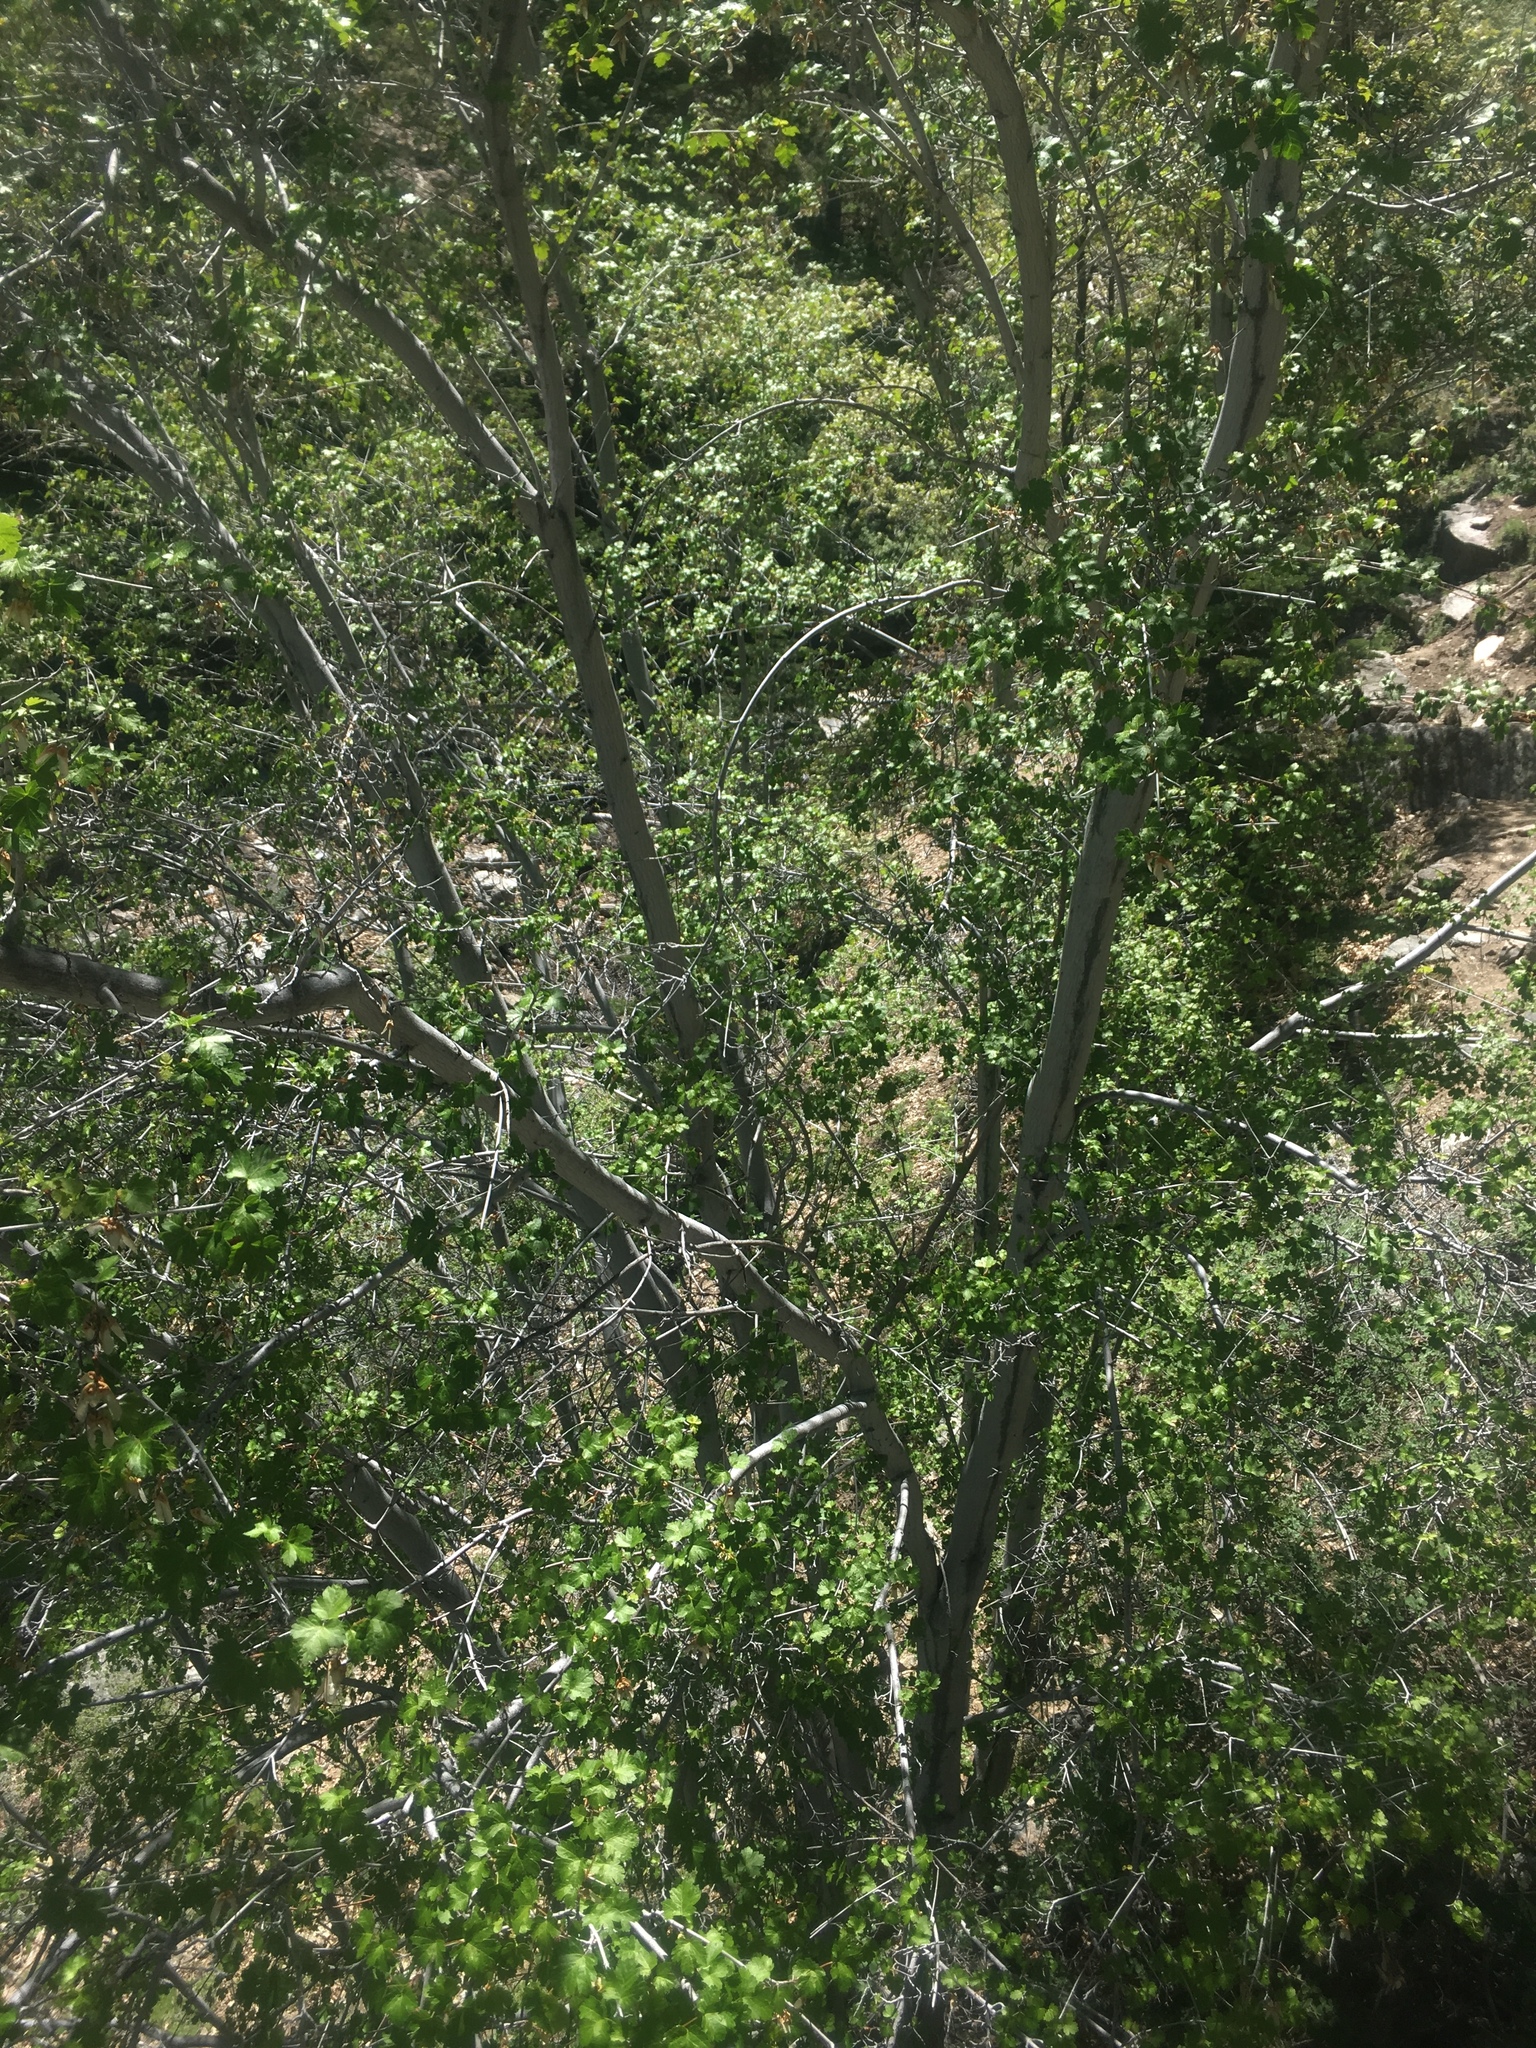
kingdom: Plantae
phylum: Tracheophyta
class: Magnoliopsida
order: Sapindales
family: Sapindaceae
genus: Acer
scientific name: Acer glabrum
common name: Rocky mountain maple
